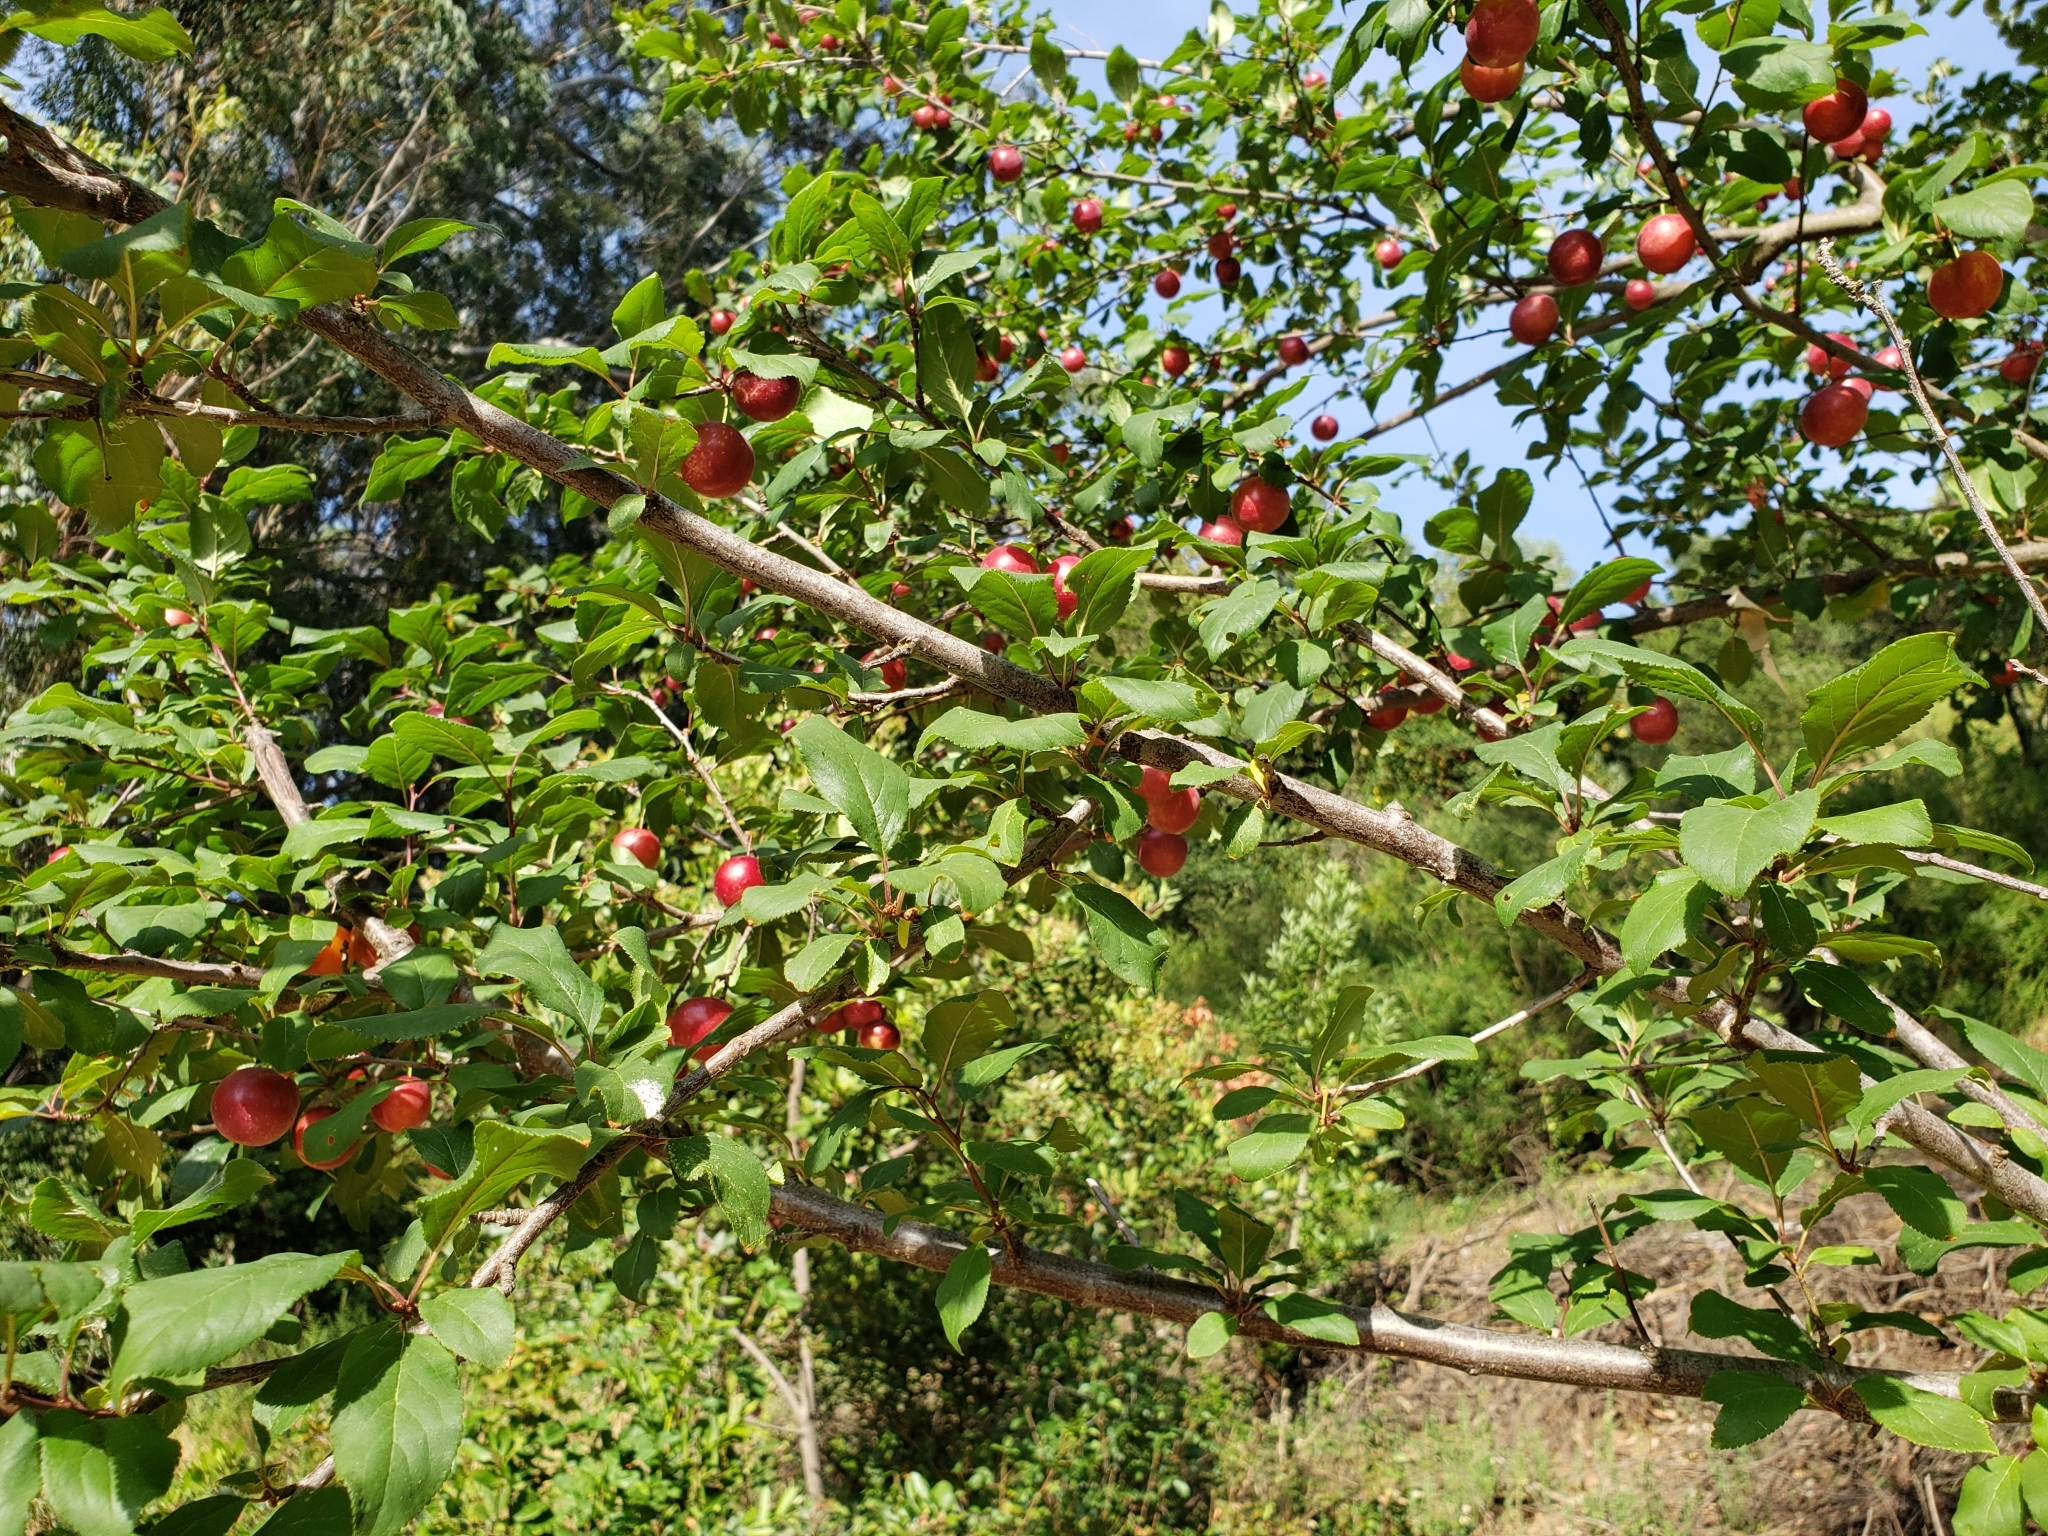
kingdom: Plantae
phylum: Tracheophyta
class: Magnoliopsida
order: Rosales
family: Rosaceae
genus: Prunus
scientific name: Prunus cerasifera
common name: Cherry plum
